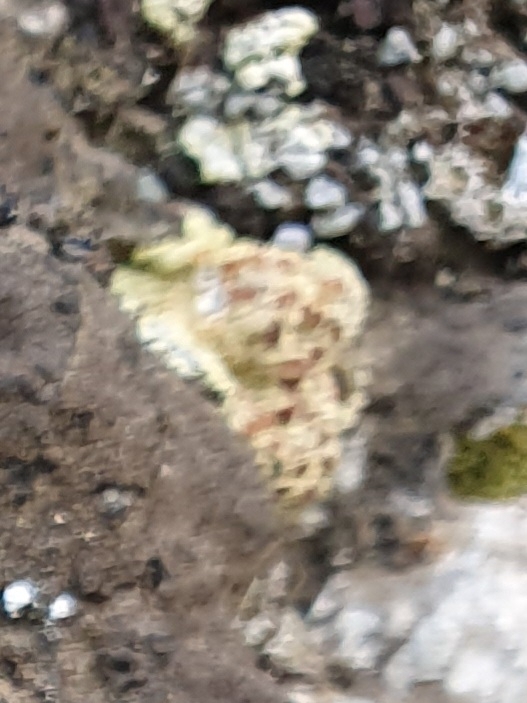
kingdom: Fungi
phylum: Ascomycota
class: Lecanoromycetes
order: Teloschistales
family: Teloschistaceae
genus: Gyalolechia
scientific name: Gyalolechia fulgida
